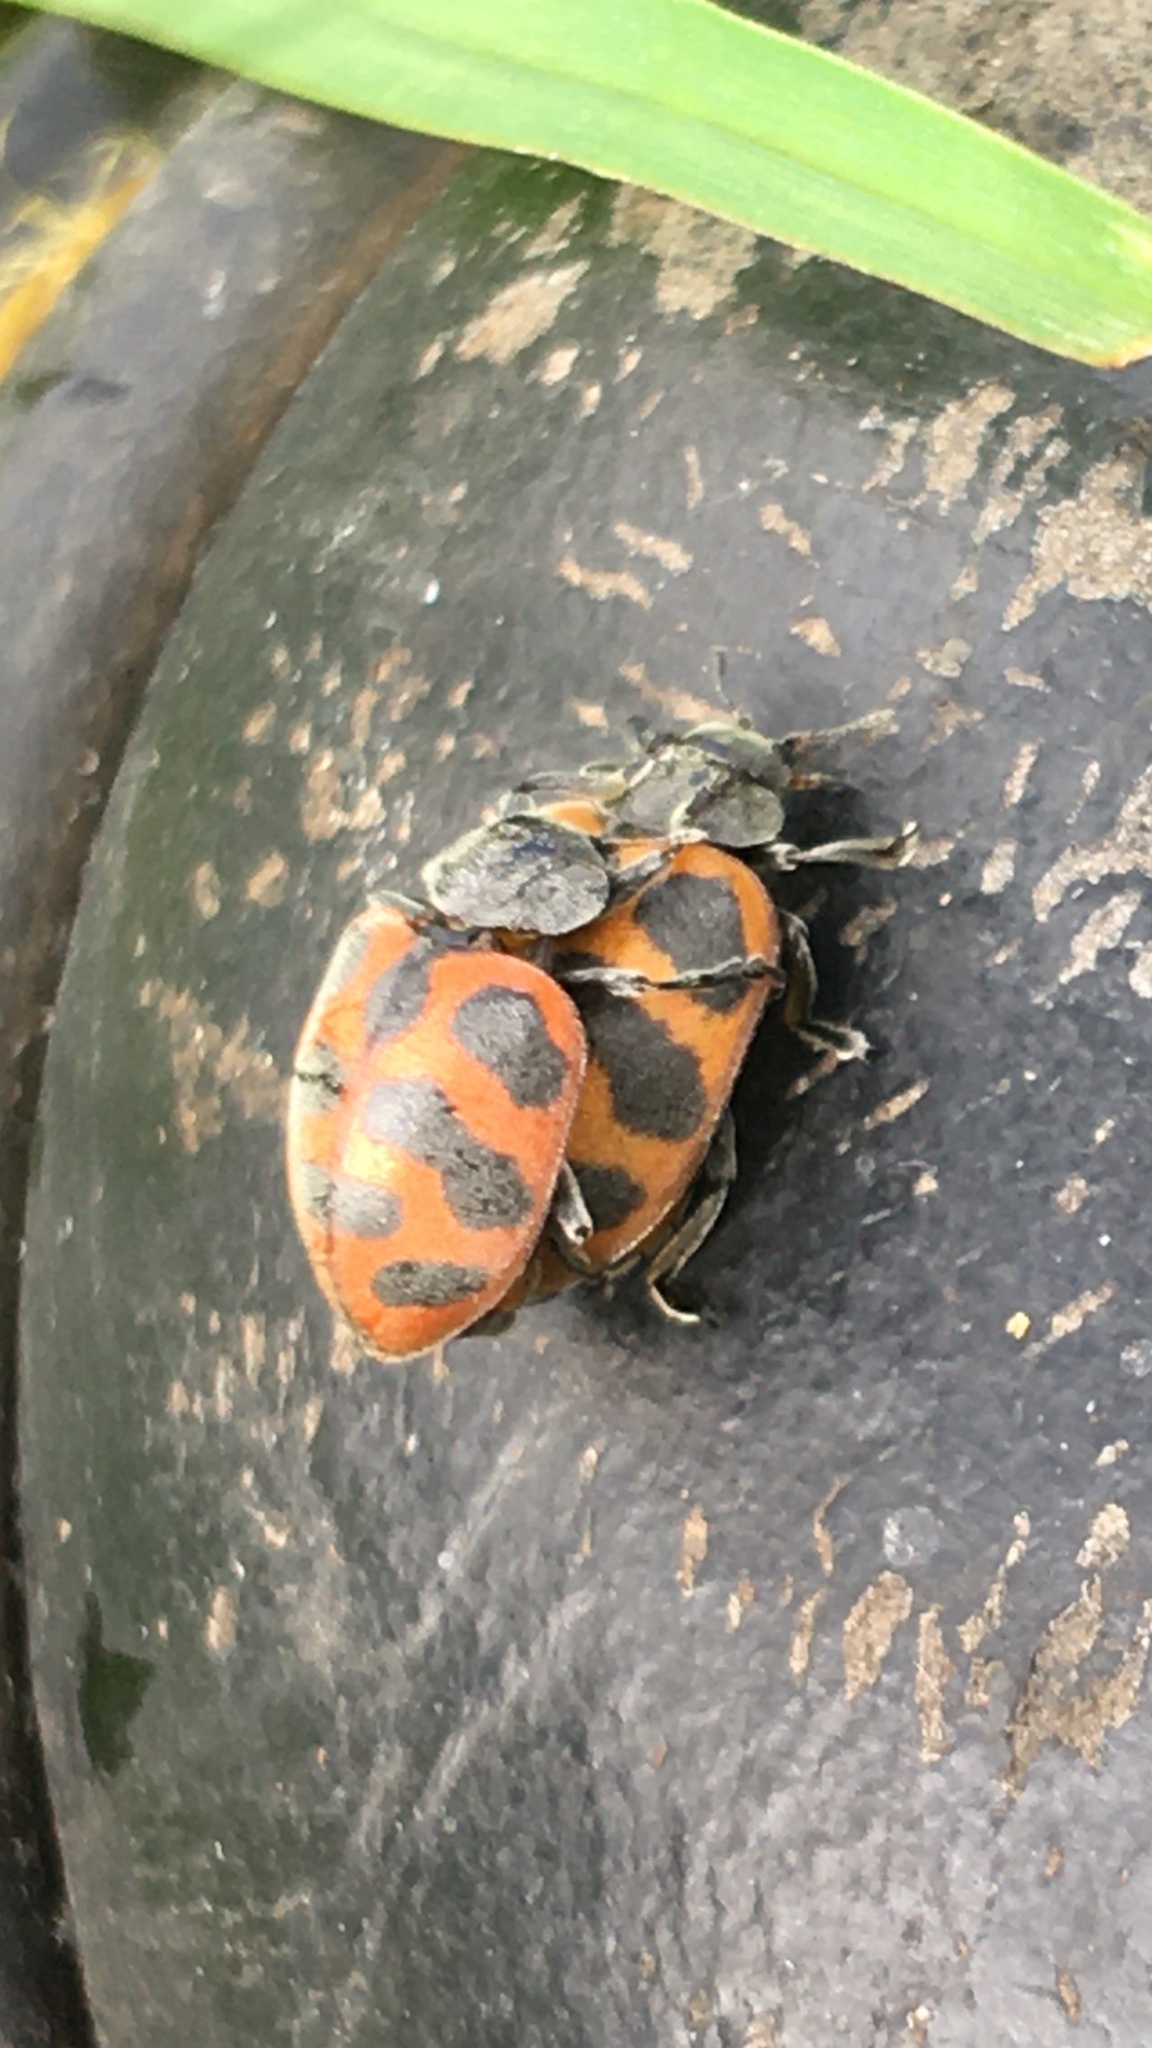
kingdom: Animalia
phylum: Arthropoda
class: Insecta
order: Coleoptera
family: Coccinellidae
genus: Chnootriba
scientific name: Chnootriba
